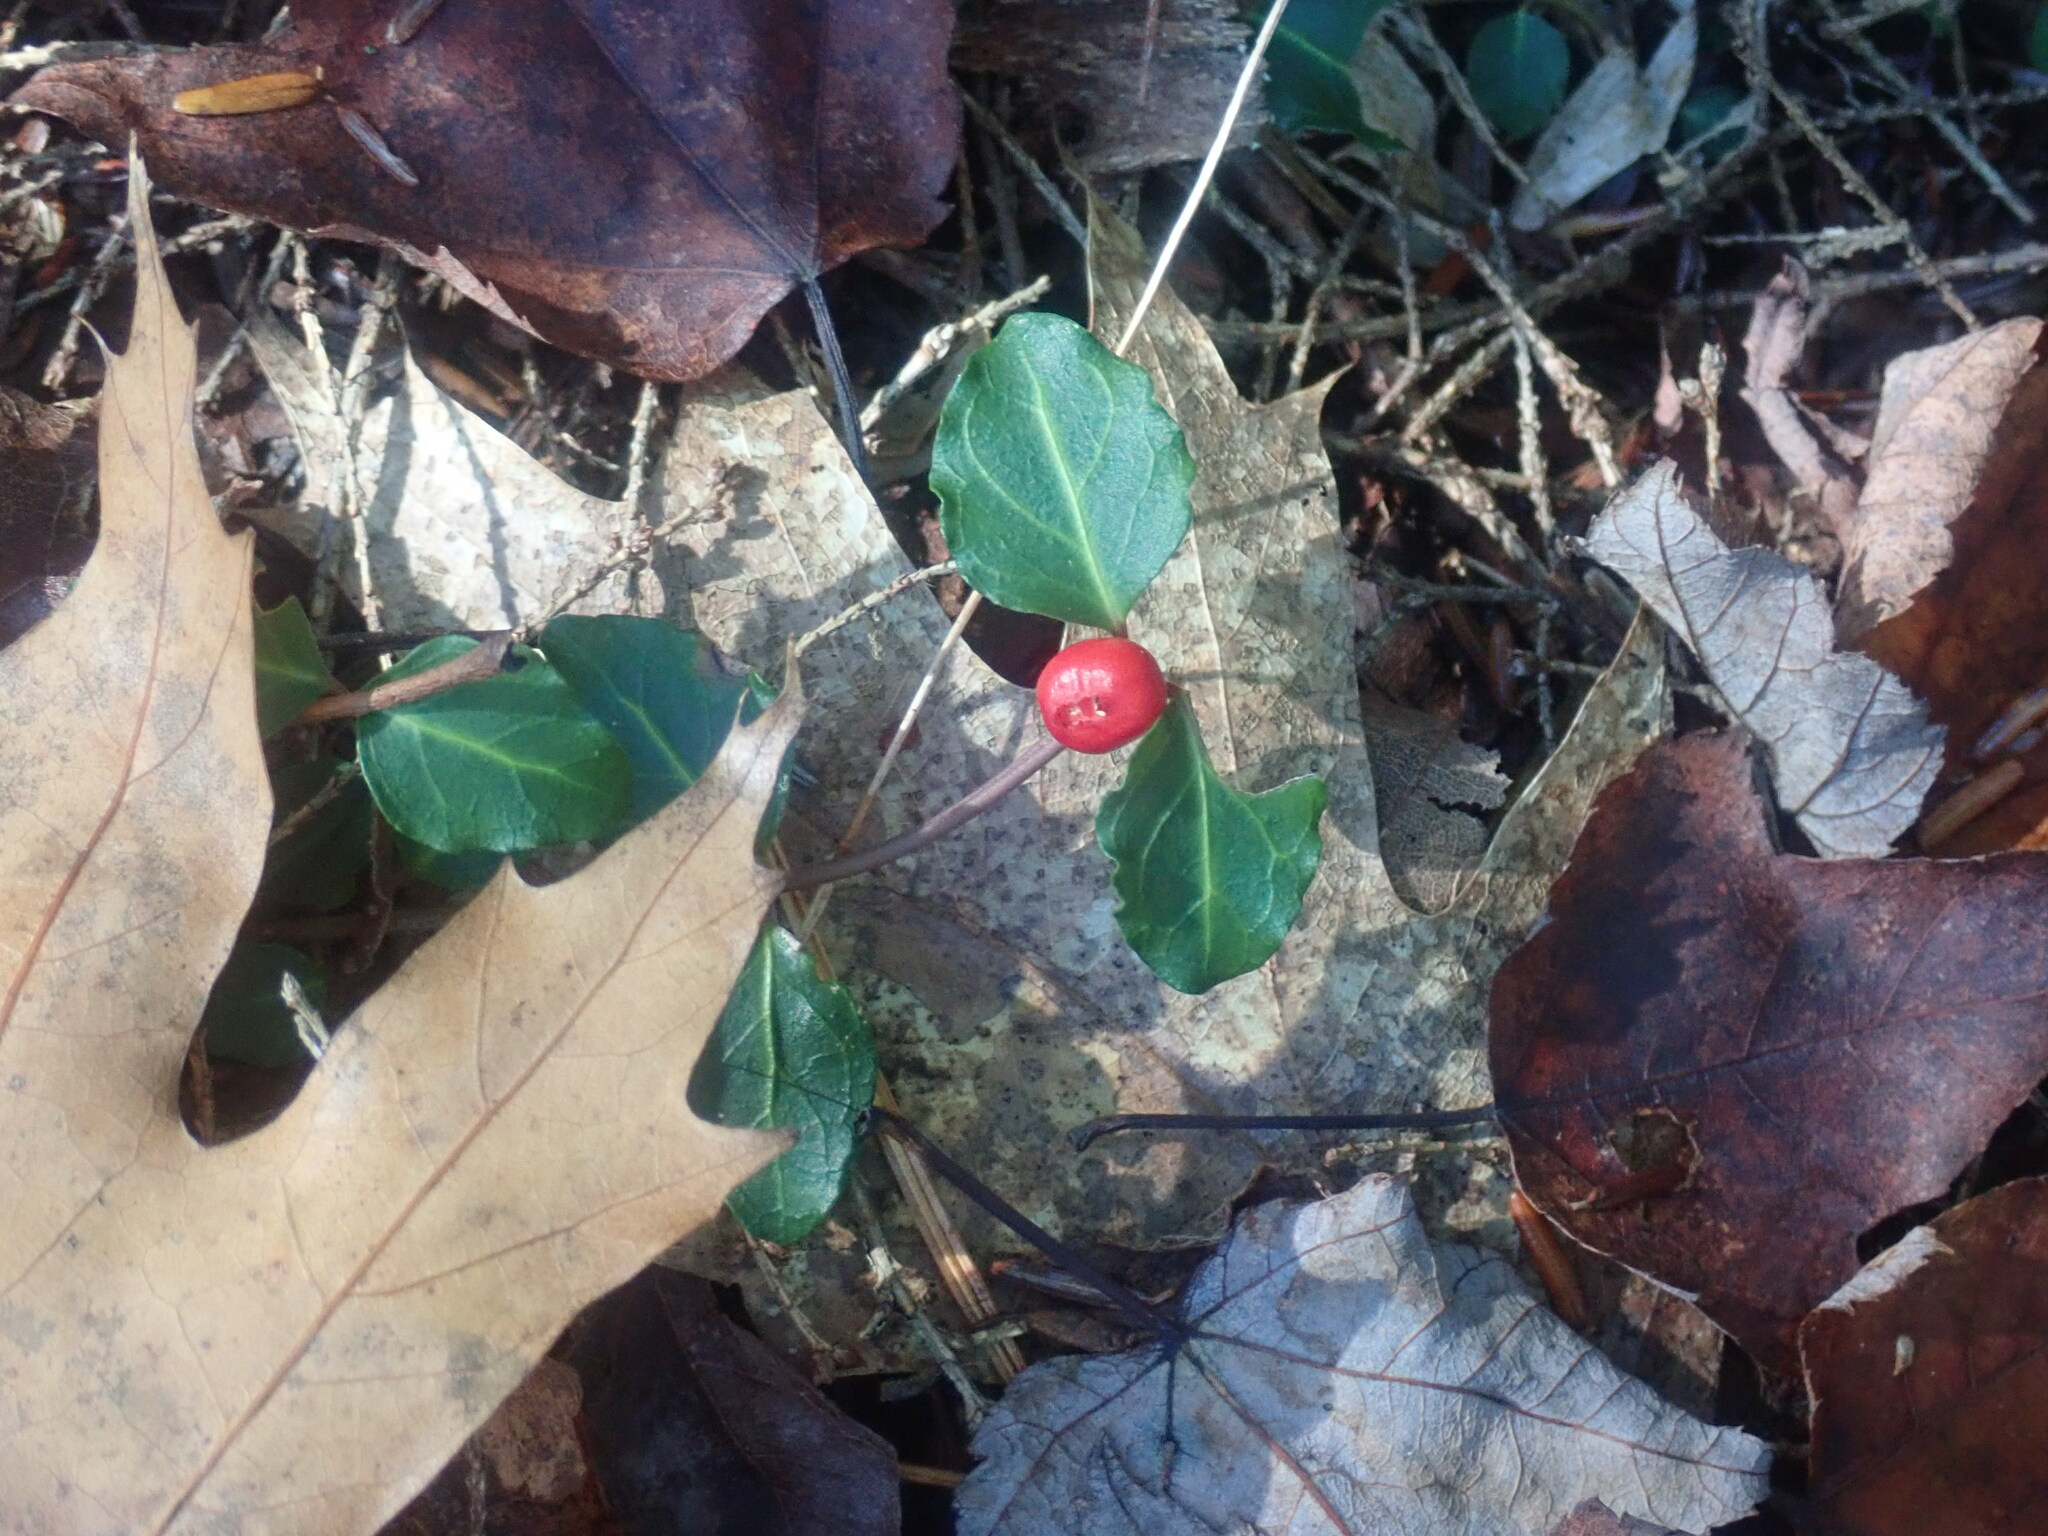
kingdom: Plantae
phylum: Tracheophyta
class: Magnoliopsida
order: Gentianales
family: Rubiaceae
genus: Mitchella
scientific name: Mitchella repens
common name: Partridge-berry
